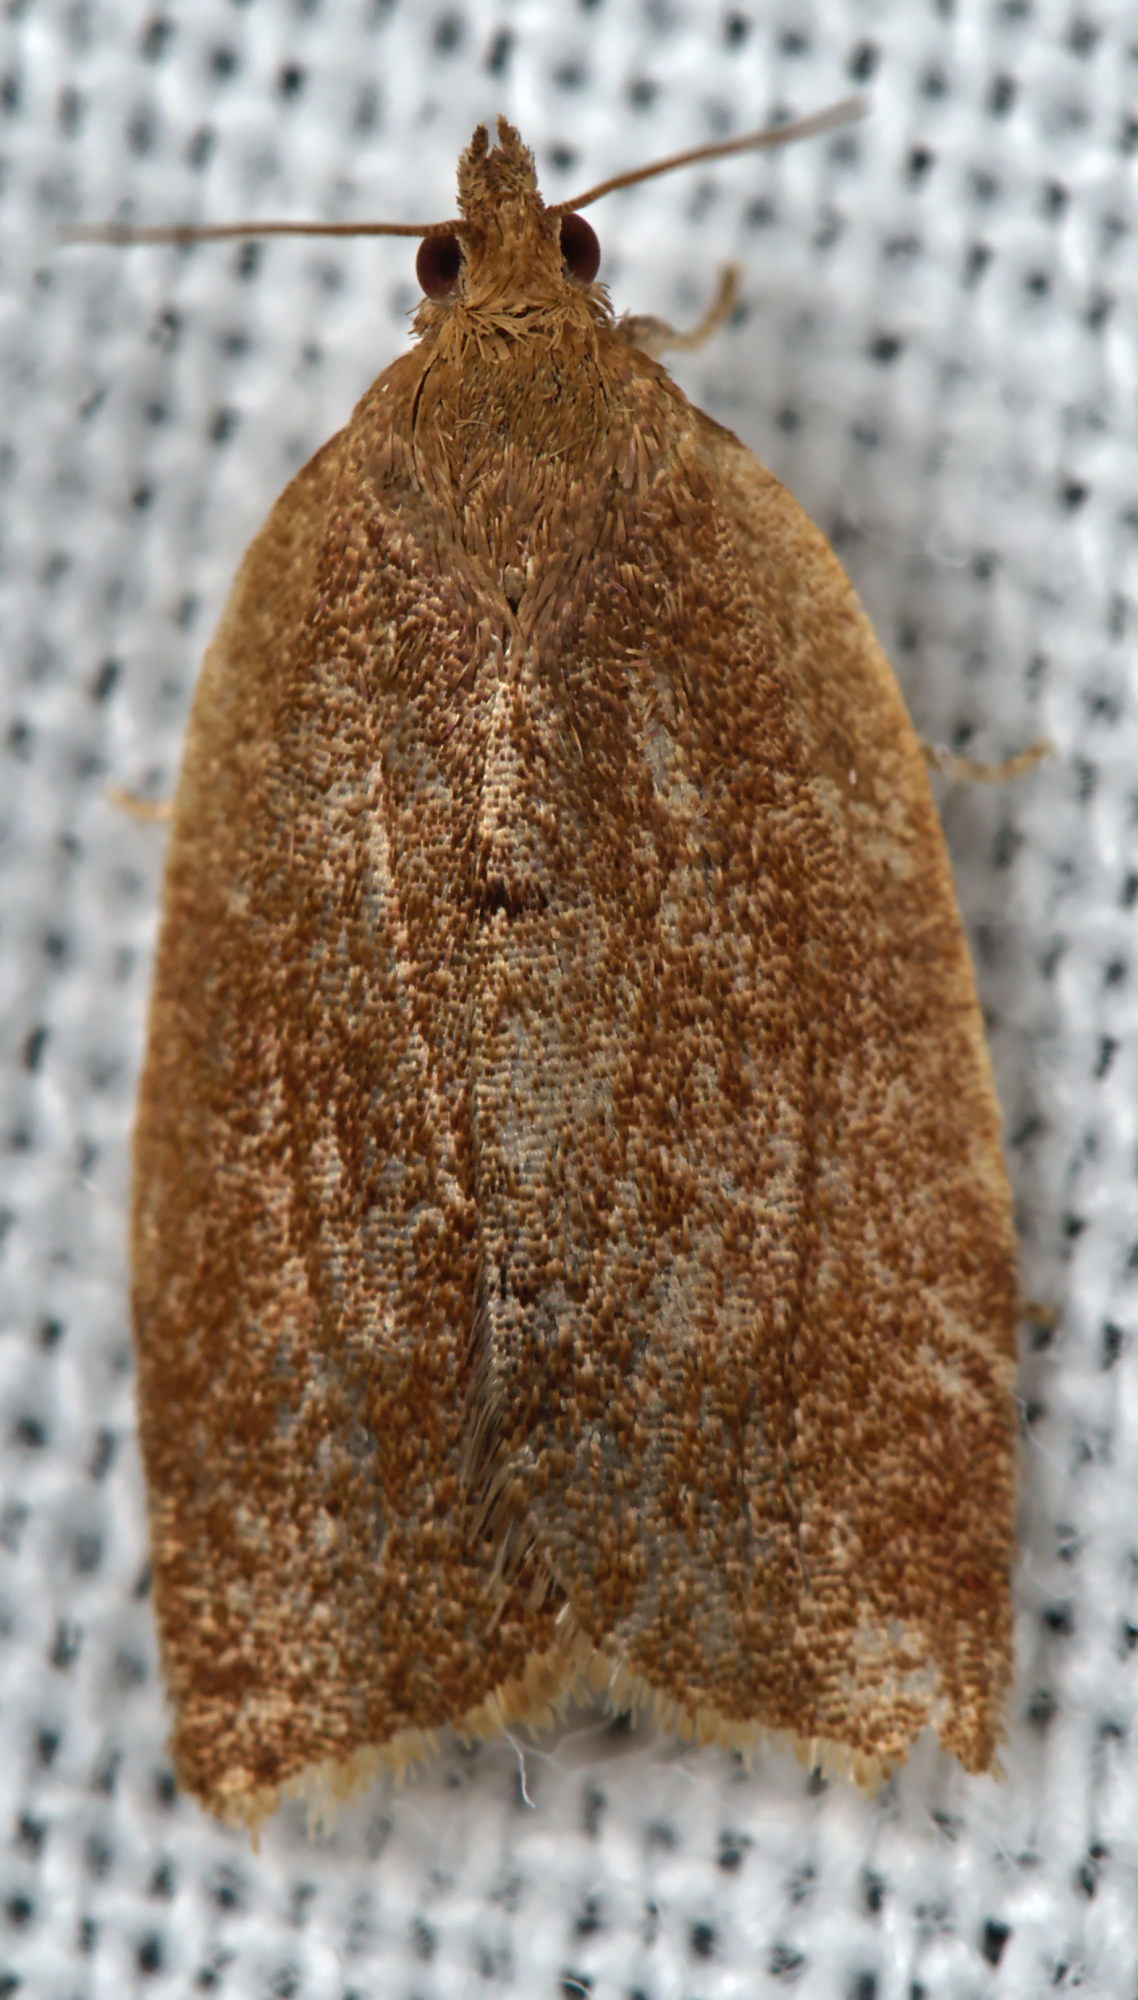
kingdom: Animalia
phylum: Arthropoda
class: Insecta
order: Lepidoptera
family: Tortricidae
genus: Clepsis
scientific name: Clepsis consimilana
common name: Privet tortrix
